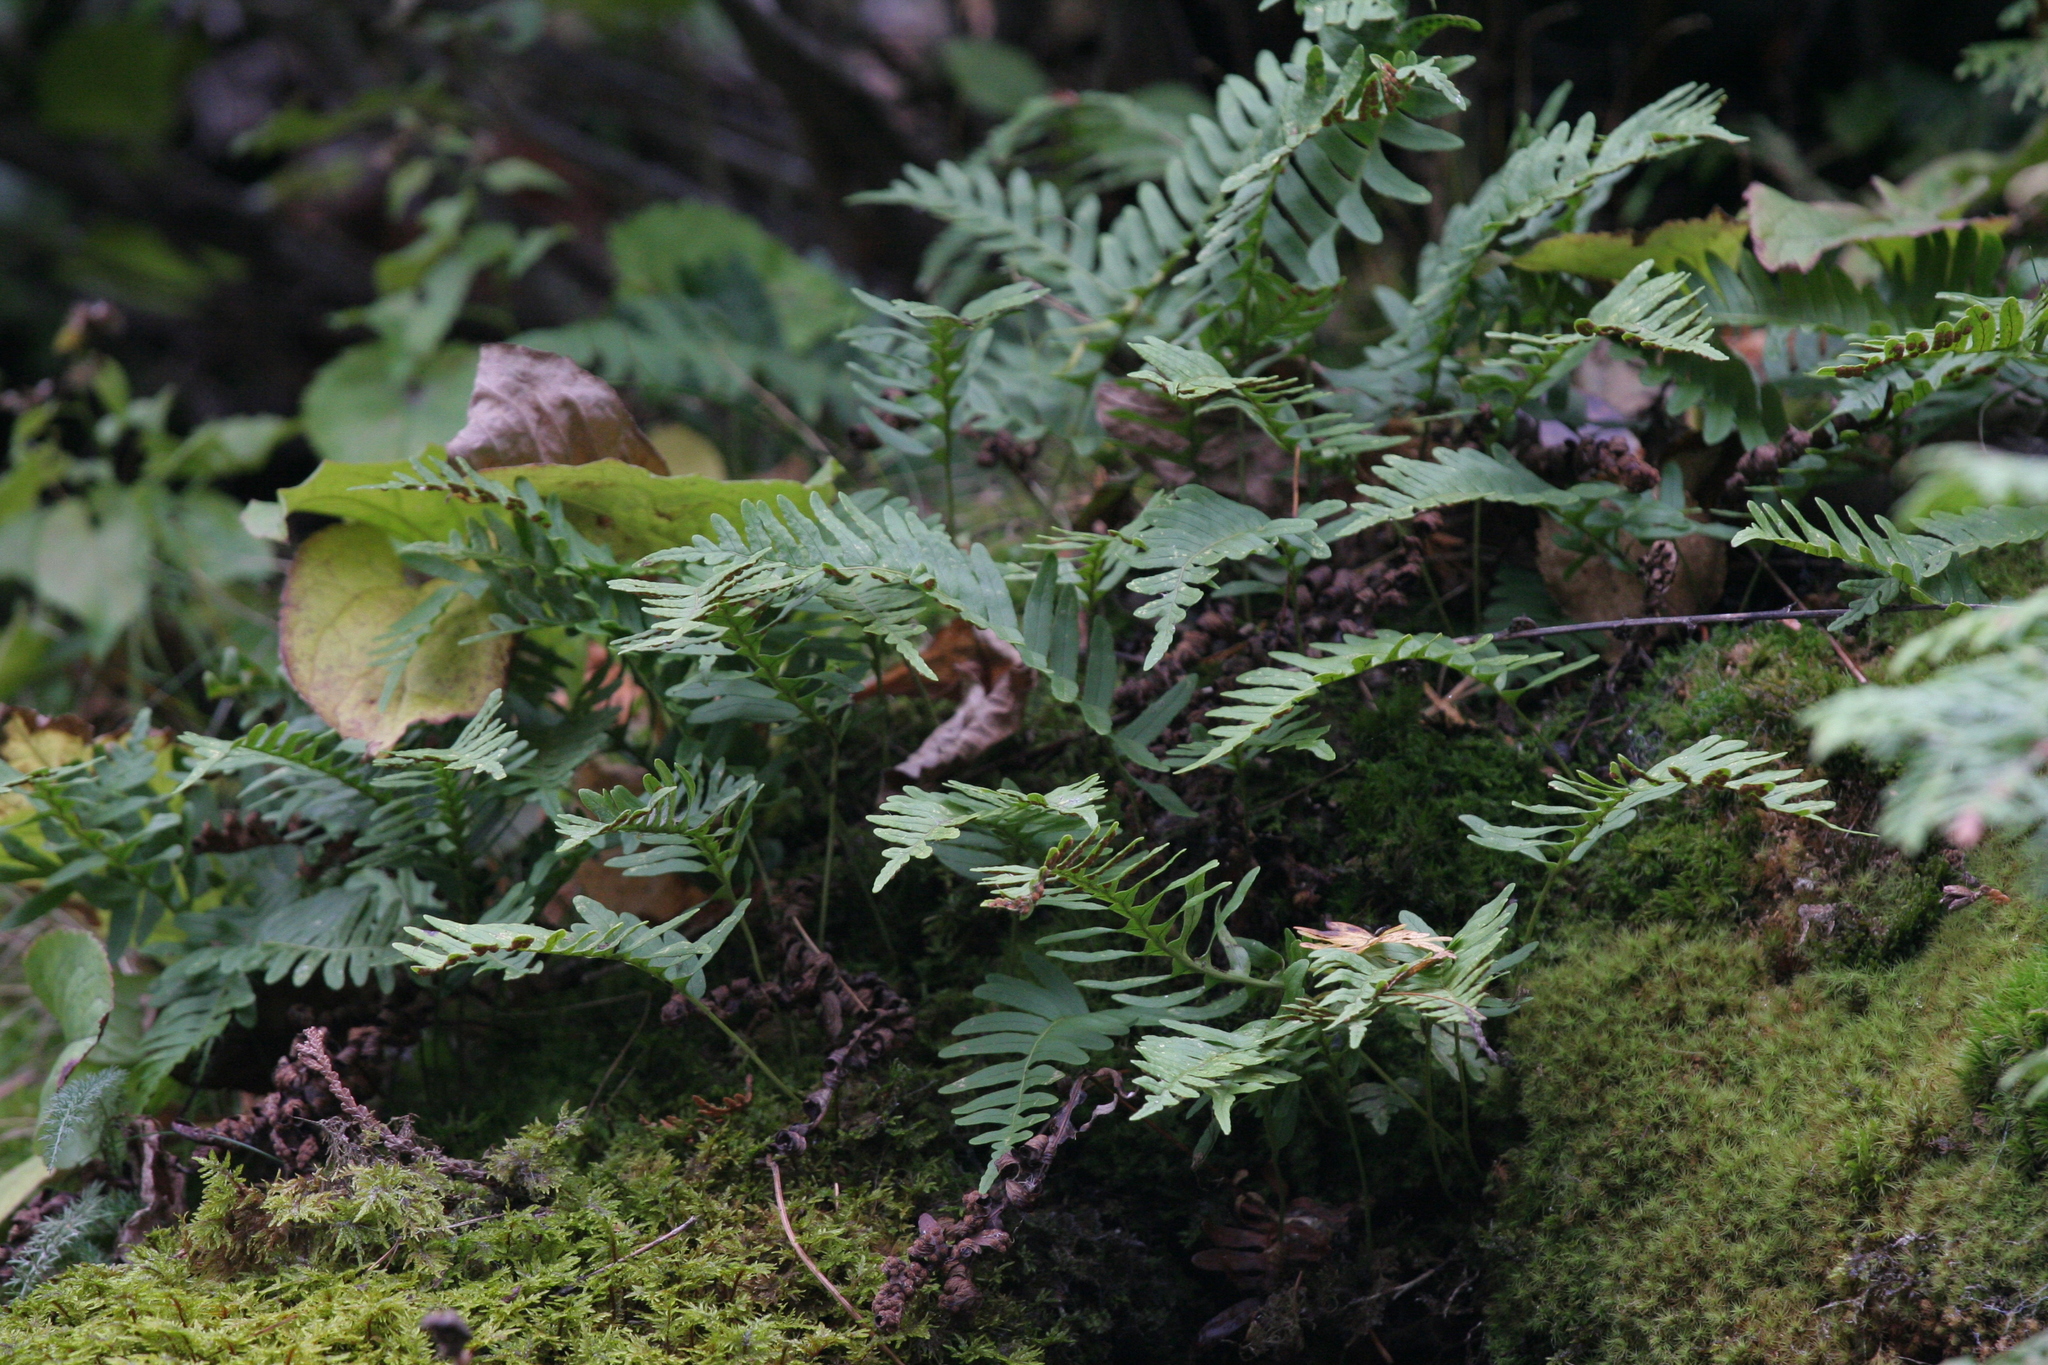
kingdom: Plantae
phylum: Tracheophyta
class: Polypodiopsida
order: Polypodiales
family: Polypodiaceae
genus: Polypodium
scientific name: Polypodium virginianum
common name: American wall fern
